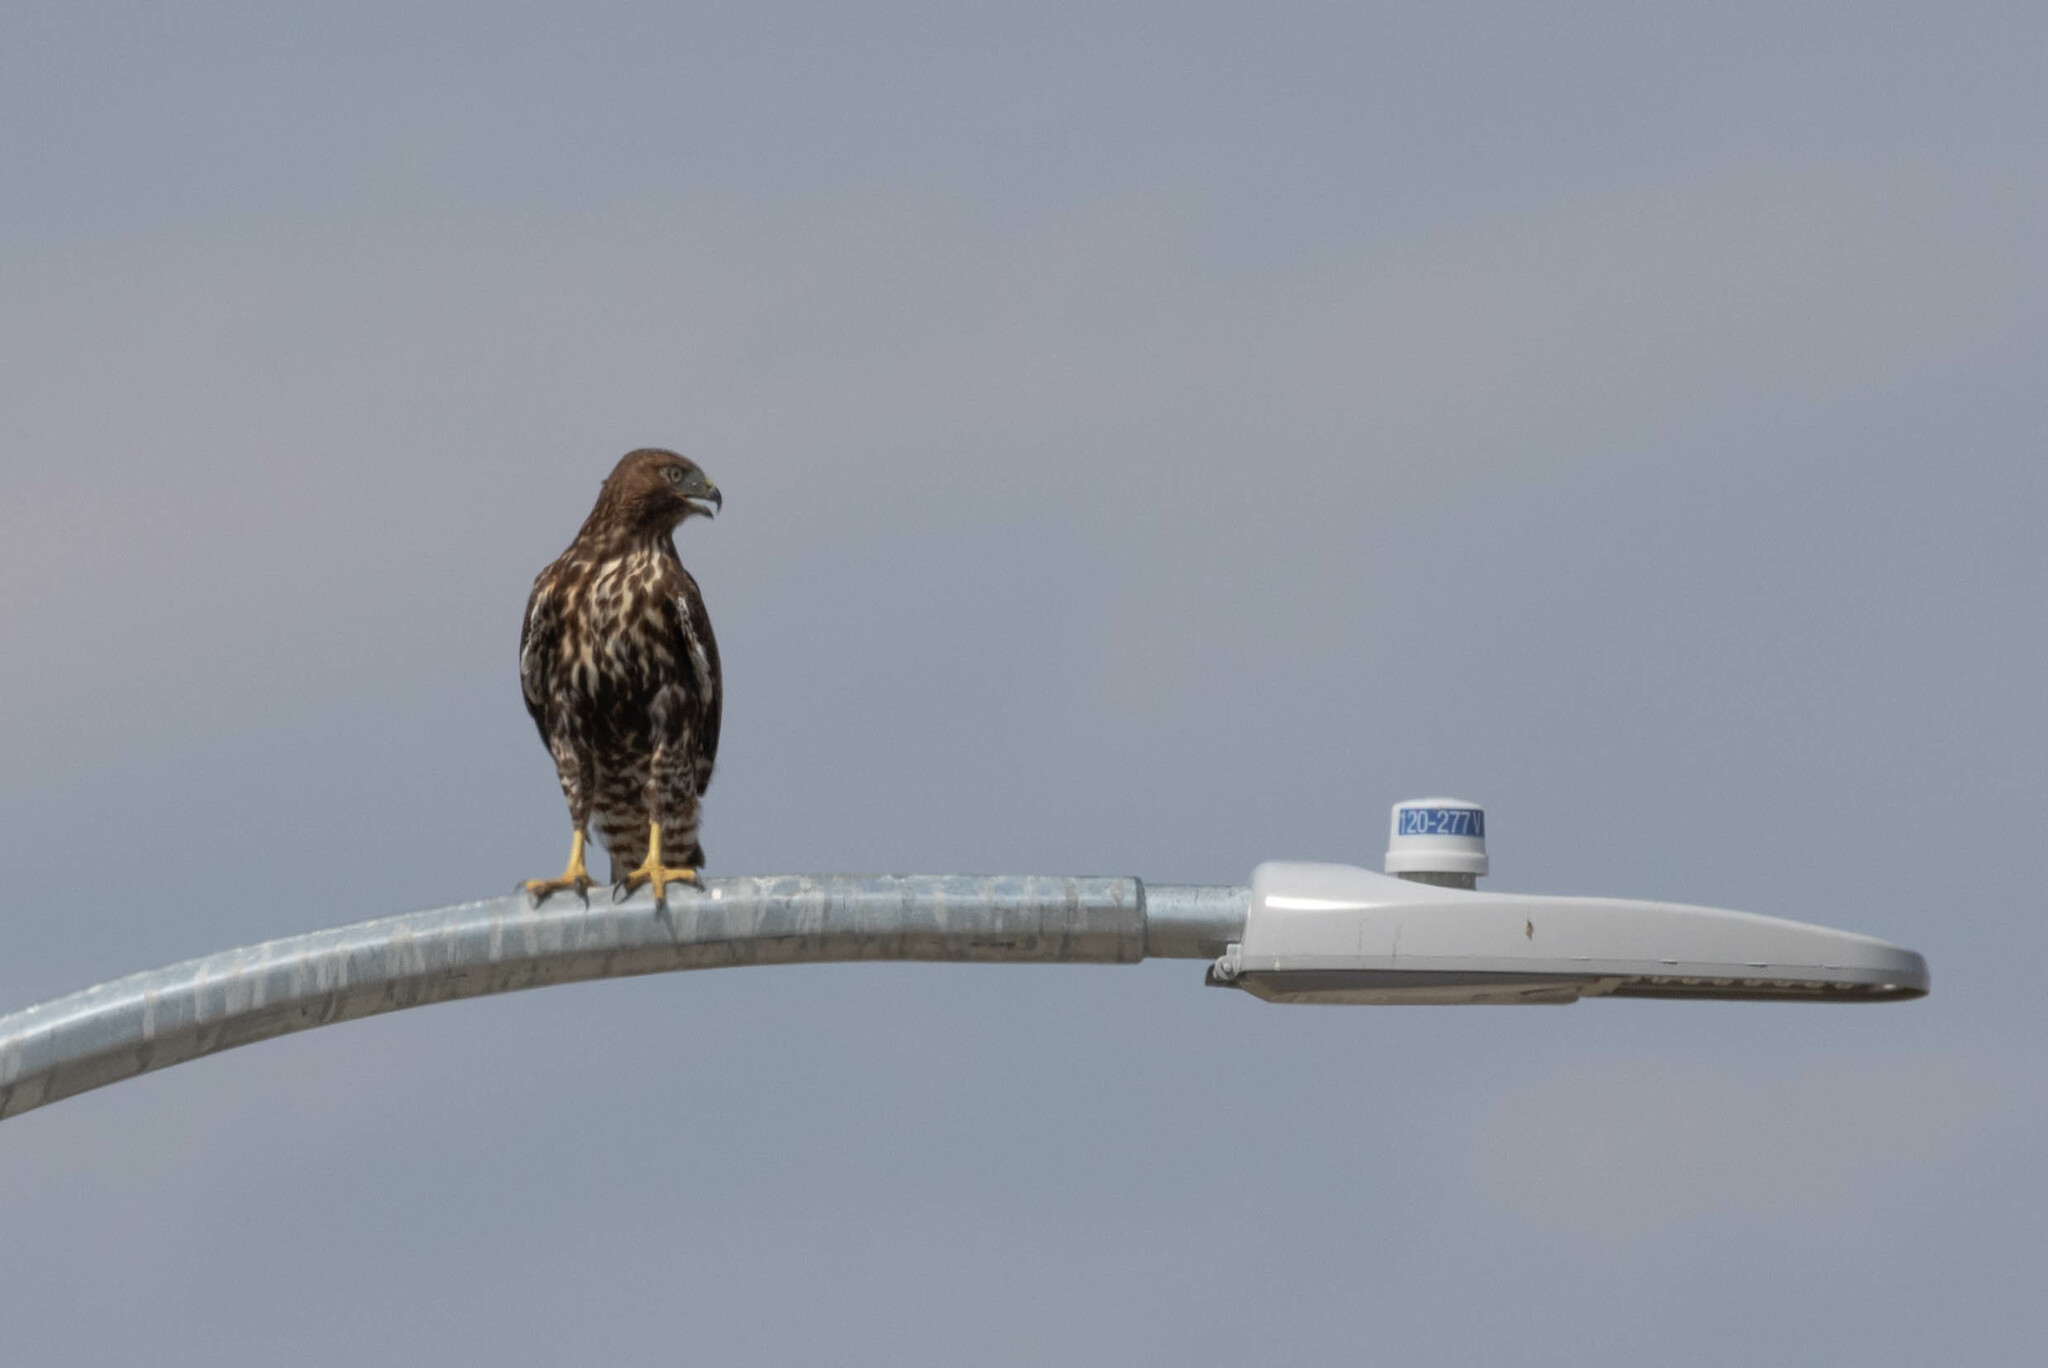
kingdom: Animalia
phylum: Chordata
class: Aves
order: Accipitriformes
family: Accipitridae
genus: Buteo
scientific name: Buteo jamaicensis
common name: Red-tailed hawk
